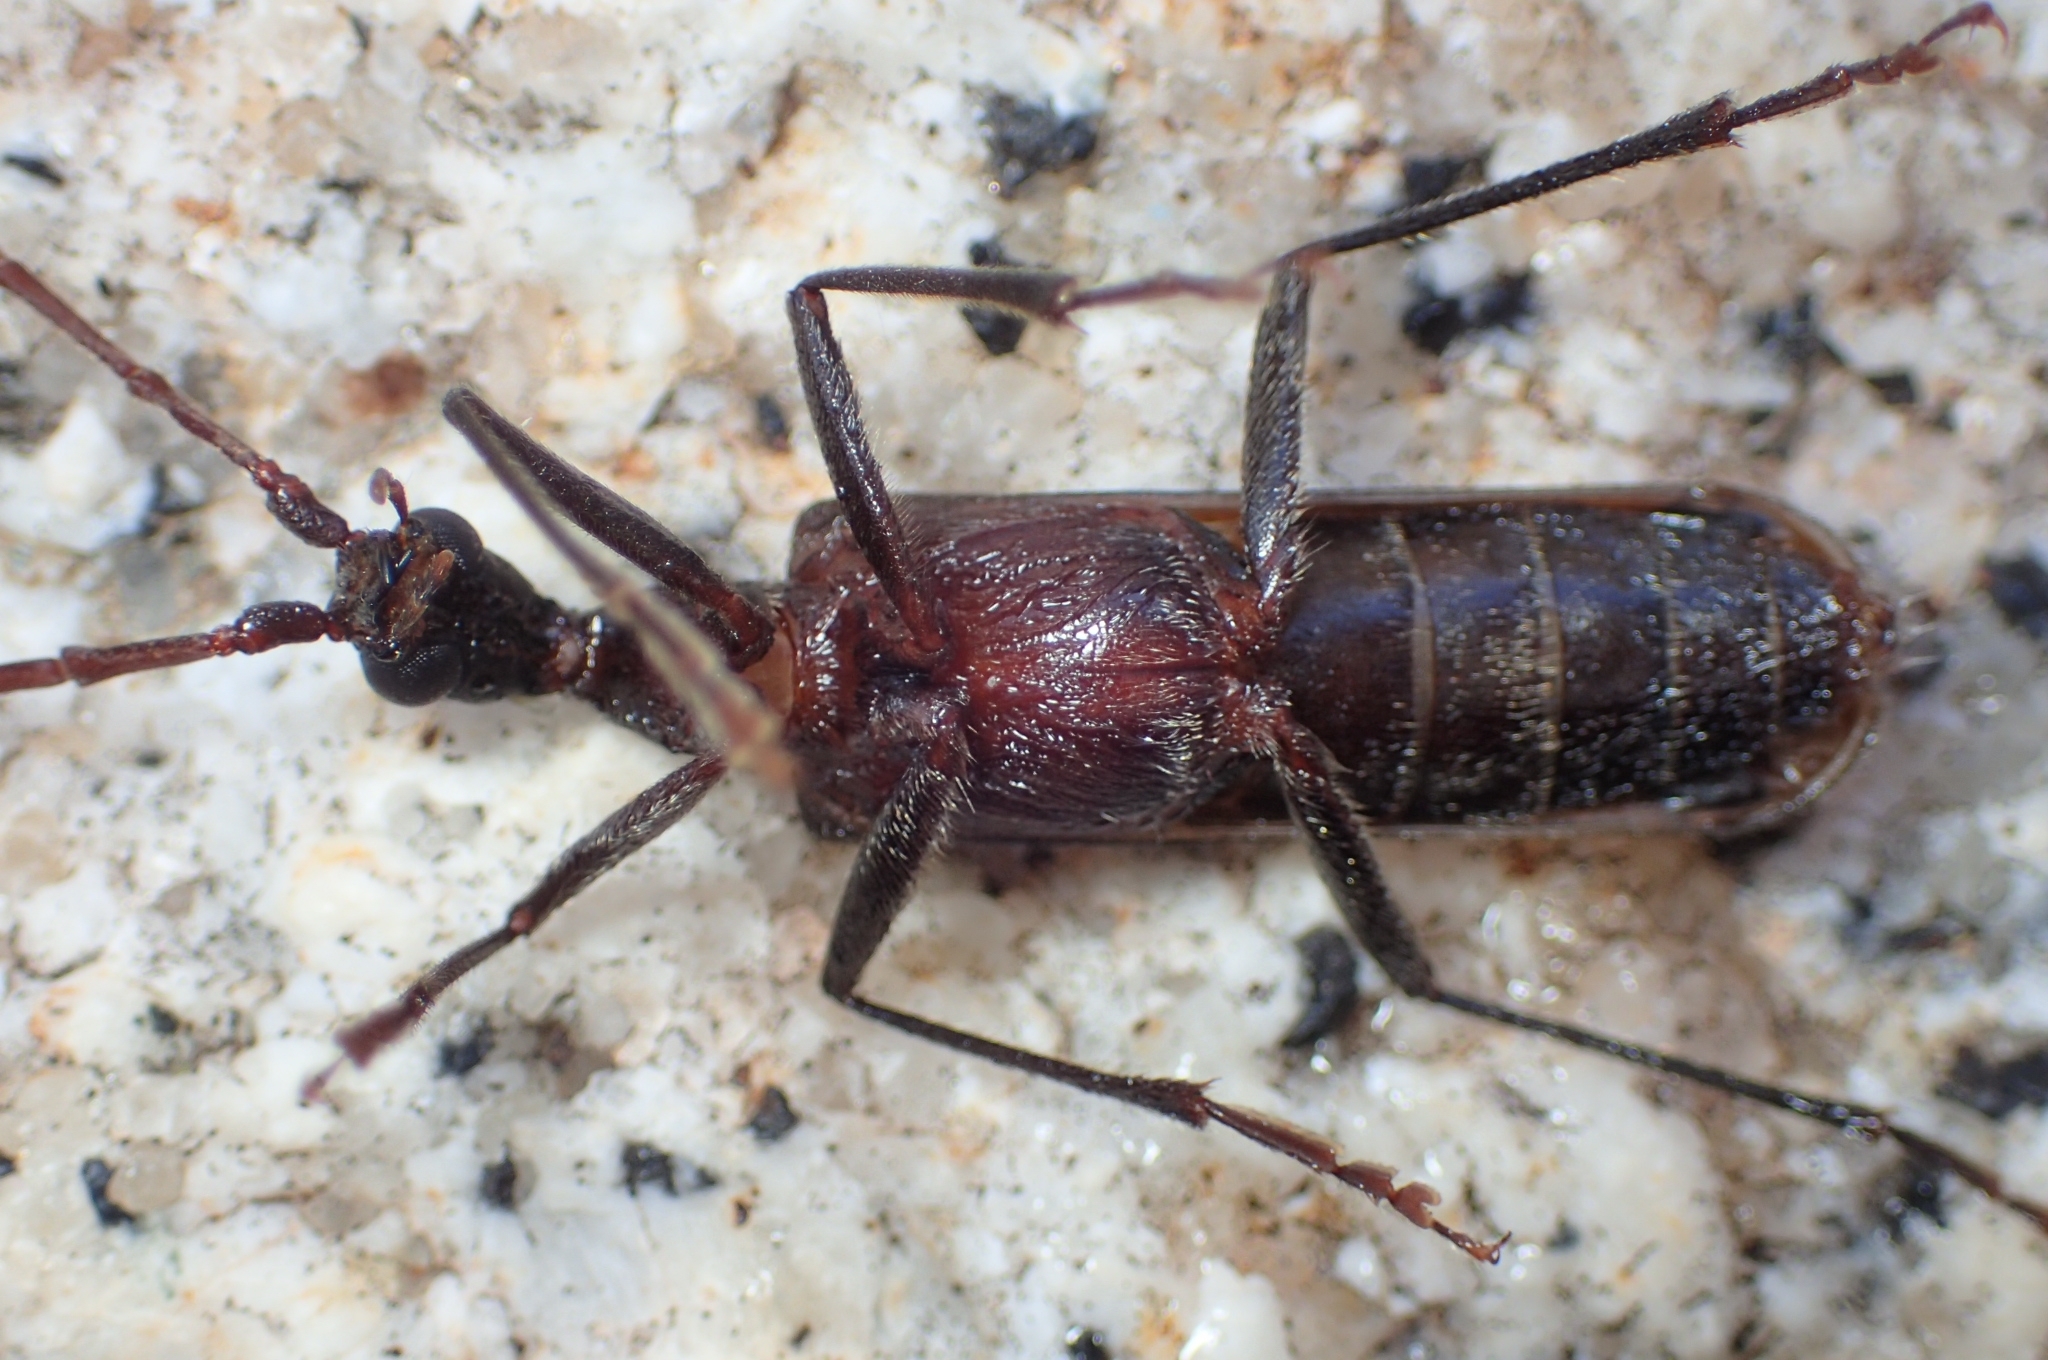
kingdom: Animalia
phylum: Arthropoda
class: Insecta
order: Coleoptera
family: Cerambycidae
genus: Vesperus
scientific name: Vesperus xatarti
